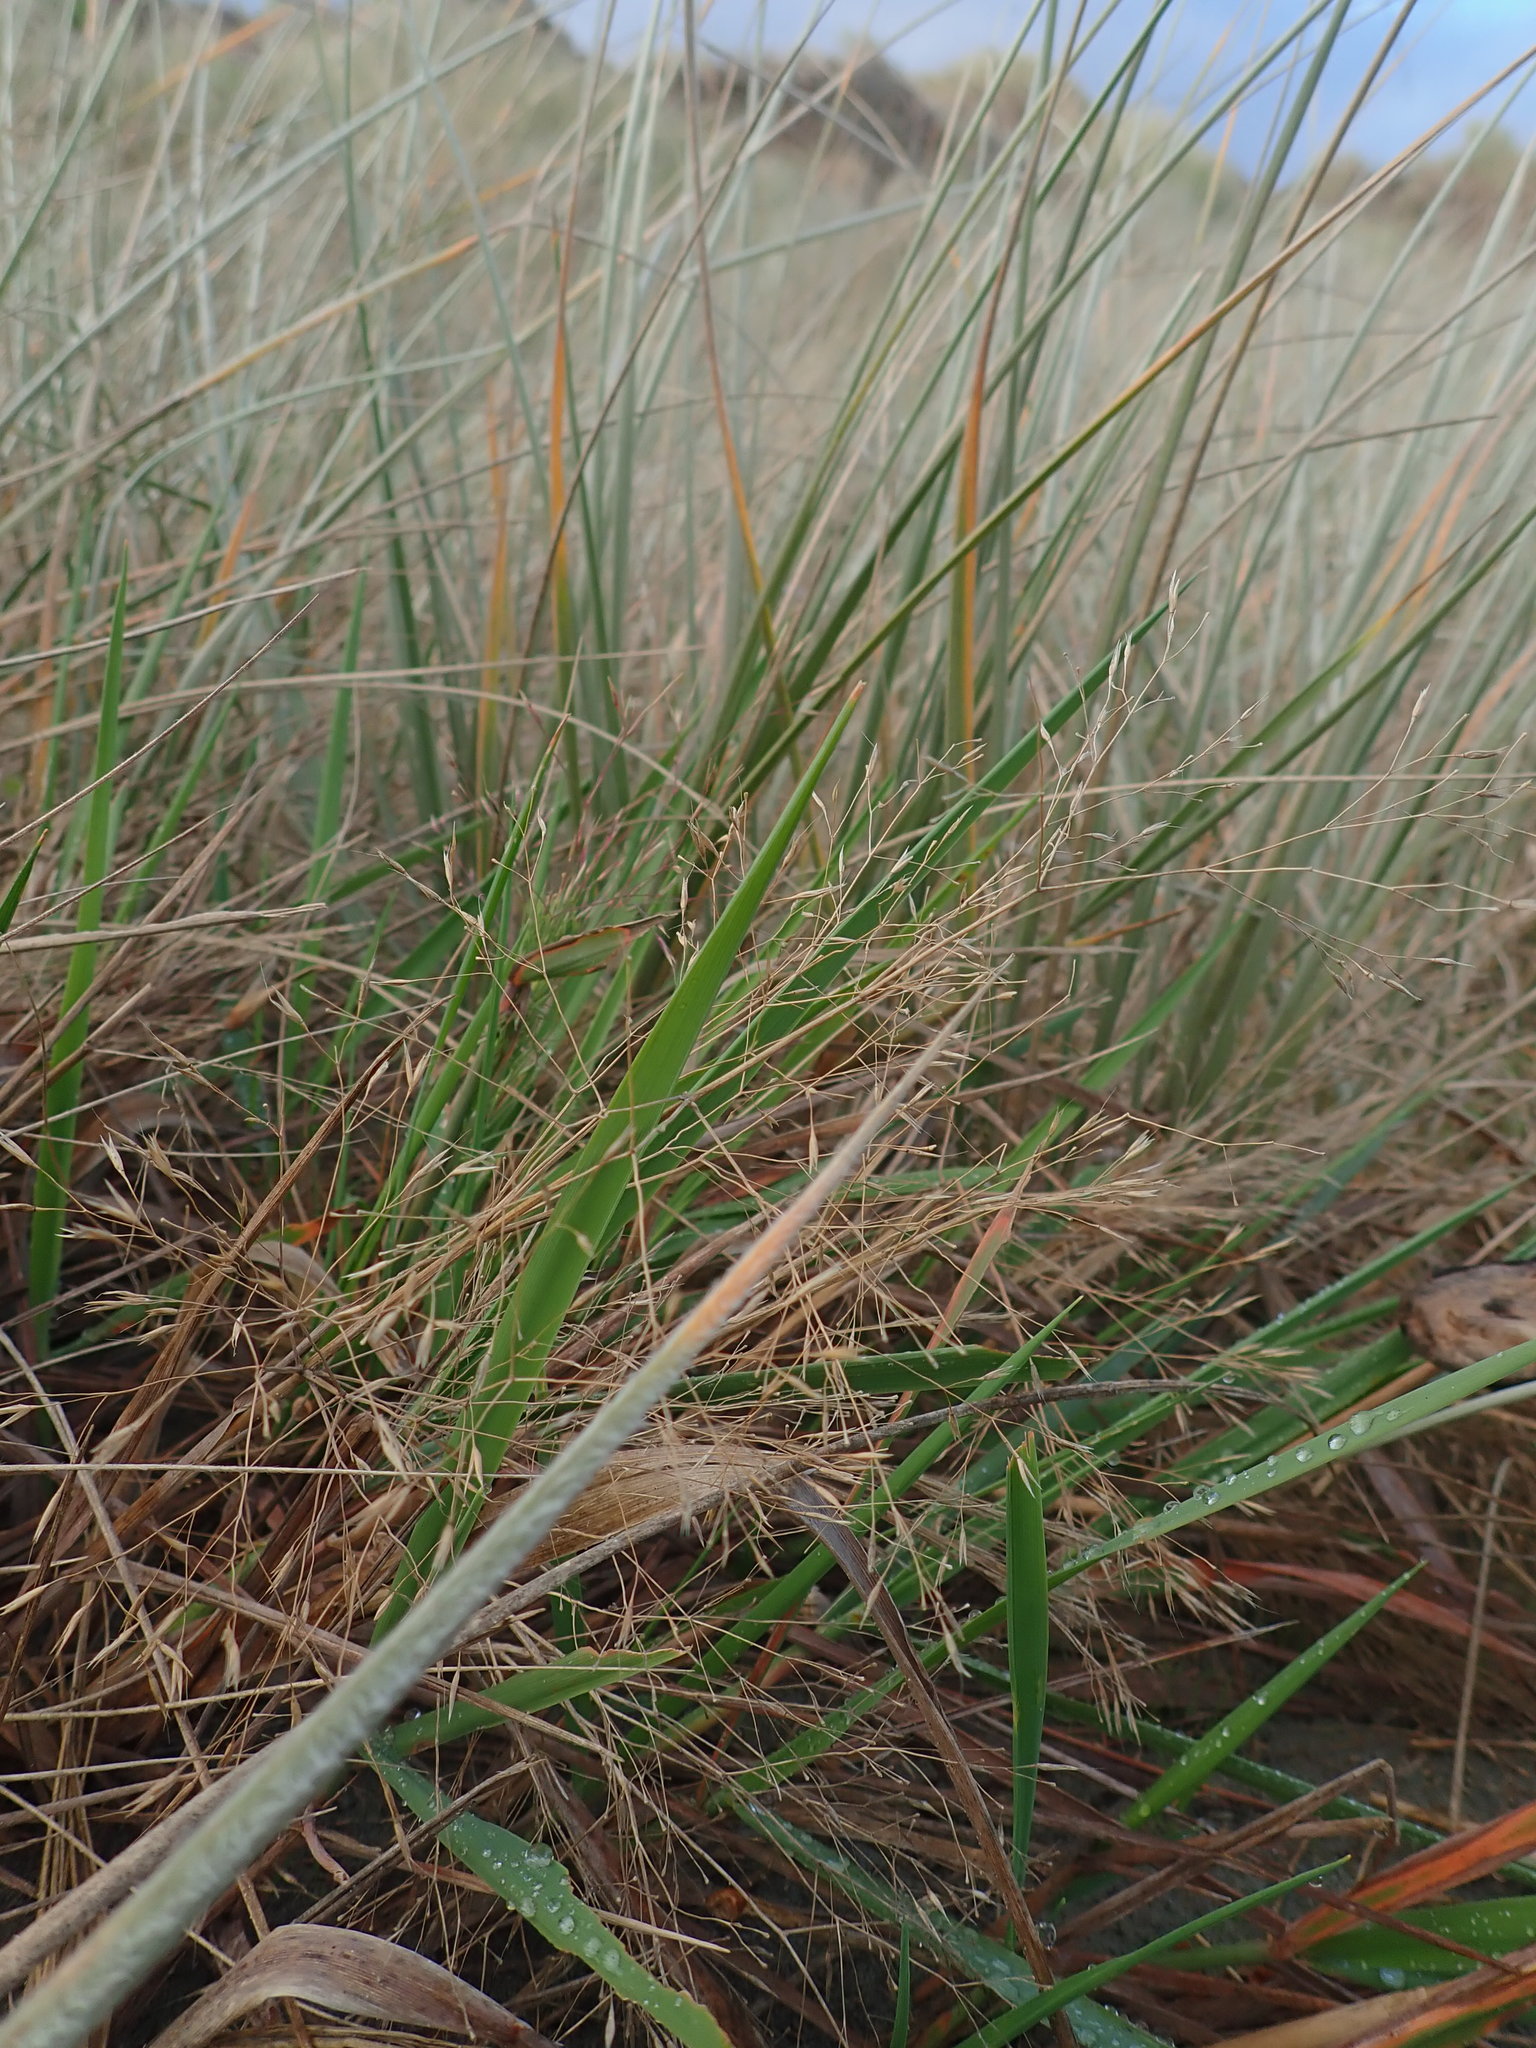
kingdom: Plantae
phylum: Tracheophyta
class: Liliopsida
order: Poales
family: Poaceae
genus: Lachnagrostis
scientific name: Lachnagrostis billardierei
